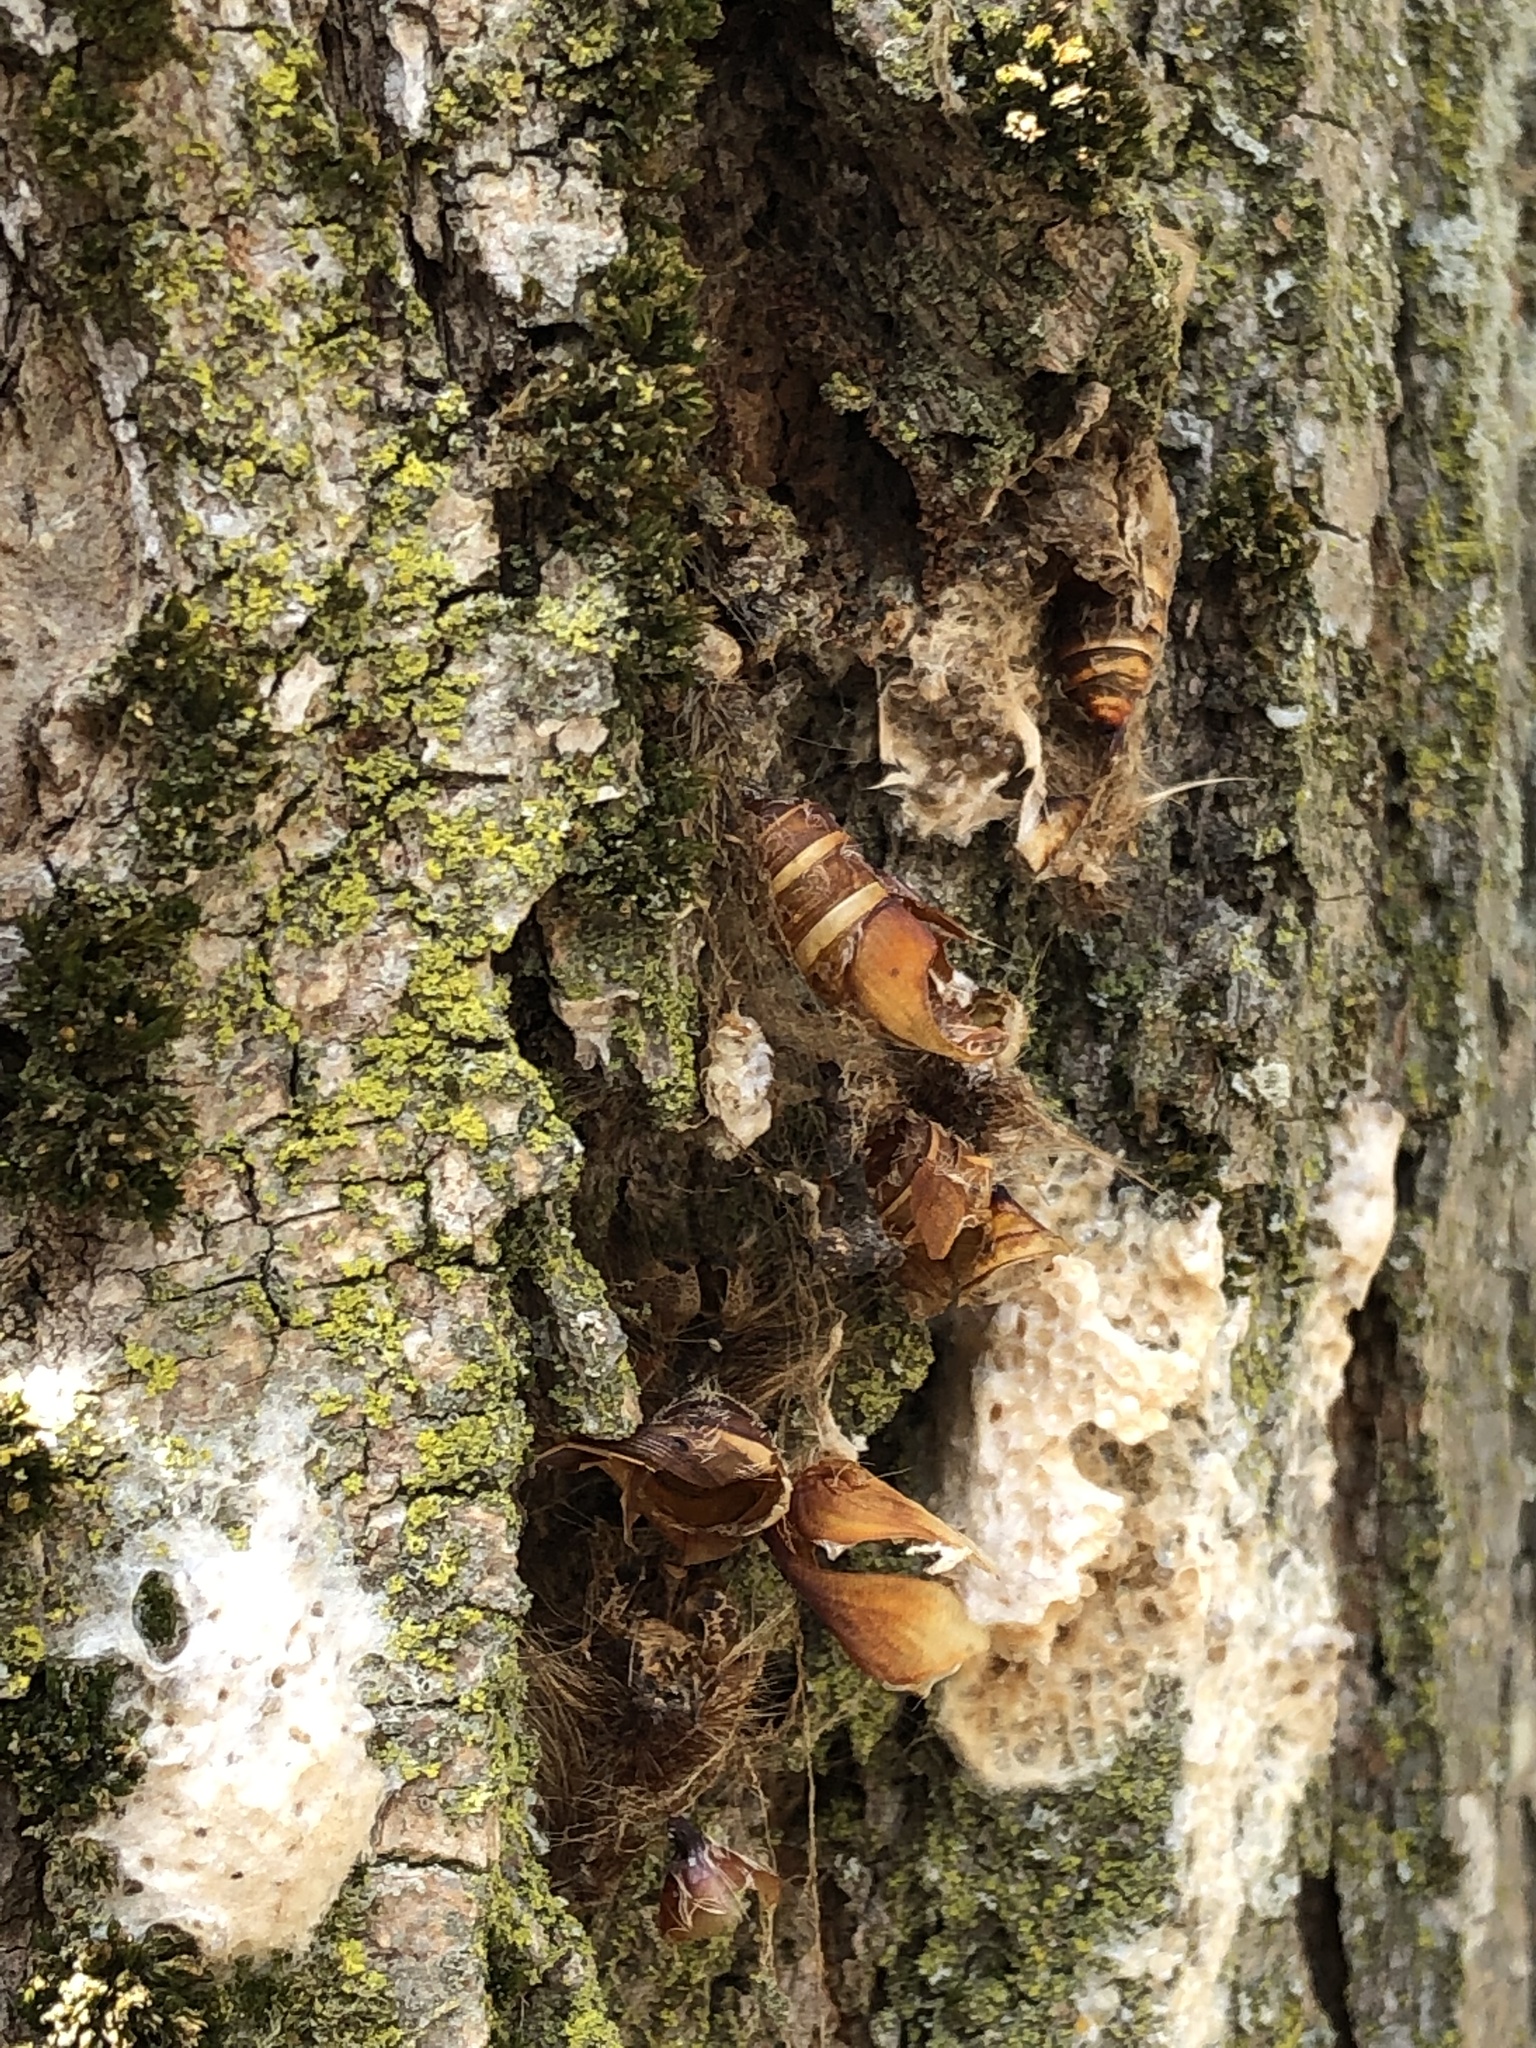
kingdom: Animalia
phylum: Arthropoda
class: Insecta
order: Lepidoptera
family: Erebidae
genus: Lymantria
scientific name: Lymantria dispar
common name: Gypsy moth
